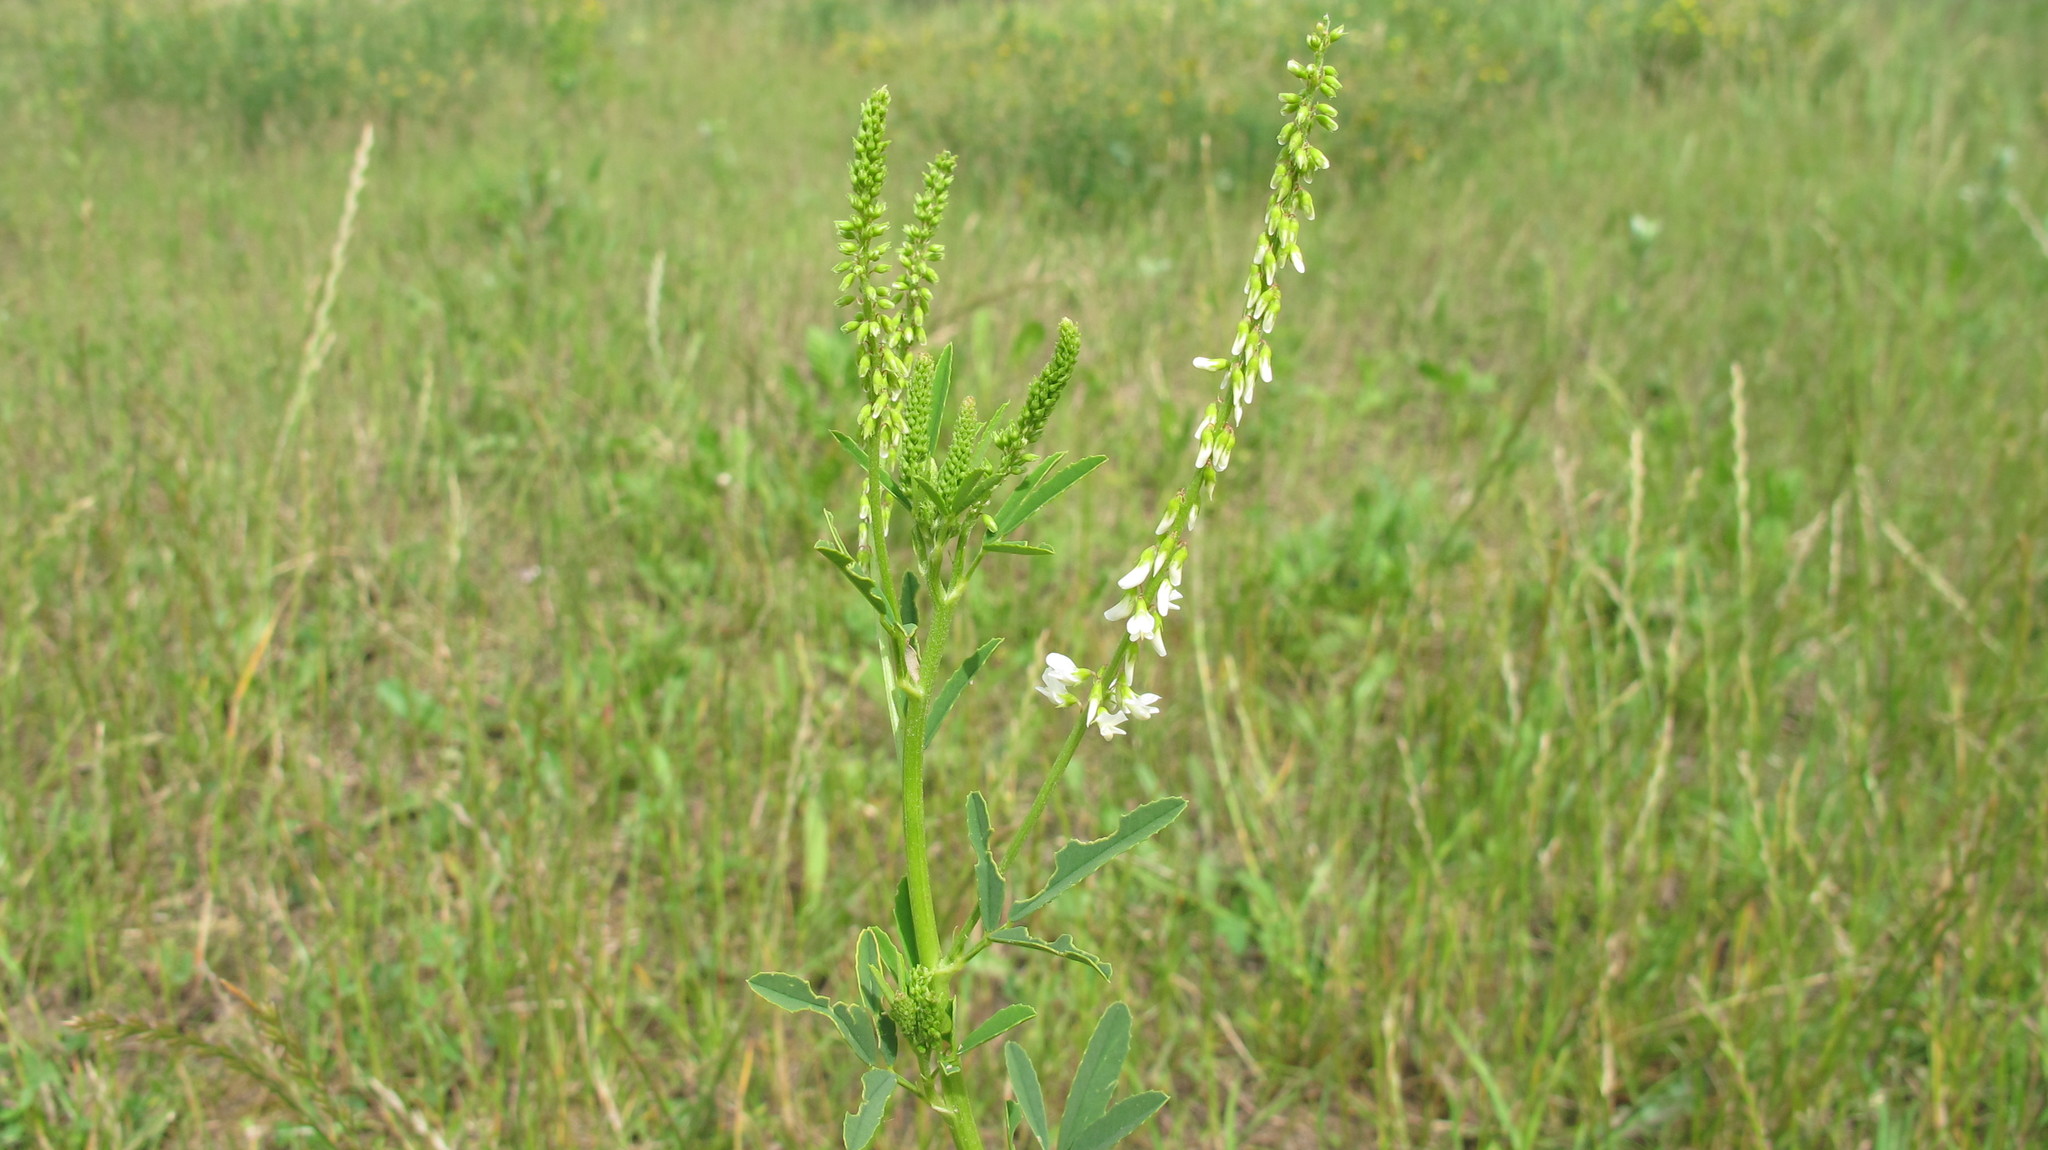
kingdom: Plantae
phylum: Tracheophyta
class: Magnoliopsida
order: Fabales
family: Fabaceae
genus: Melilotus
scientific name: Melilotus albus
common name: White melilot
